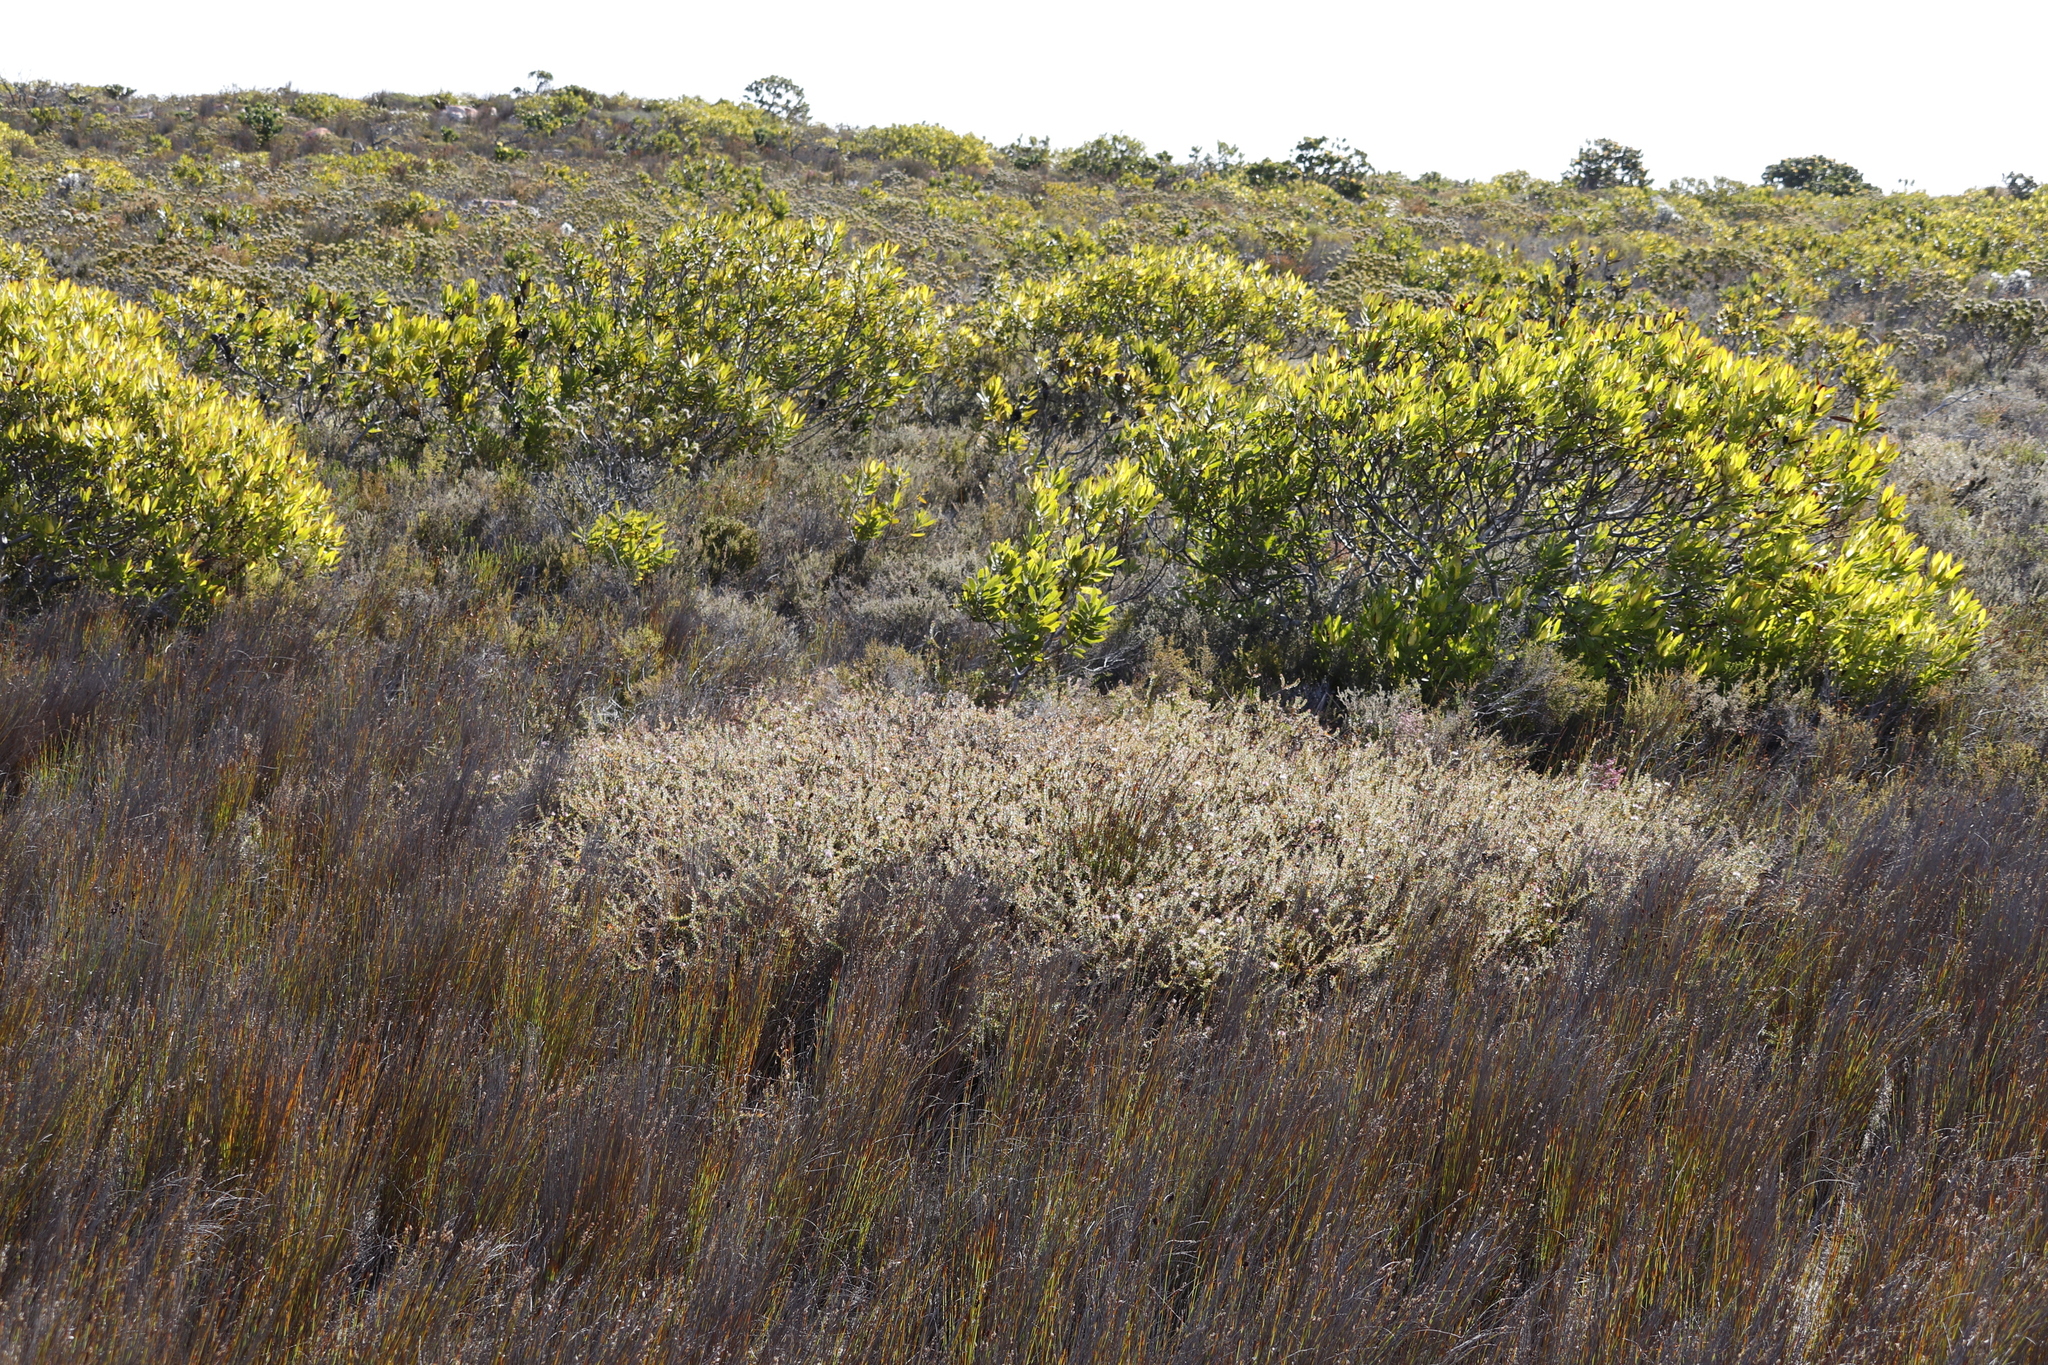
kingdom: Plantae
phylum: Tracheophyta
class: Magnoliopsida
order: Proteales
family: Proteaceae
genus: Diastella
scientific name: Diastella divaricata
